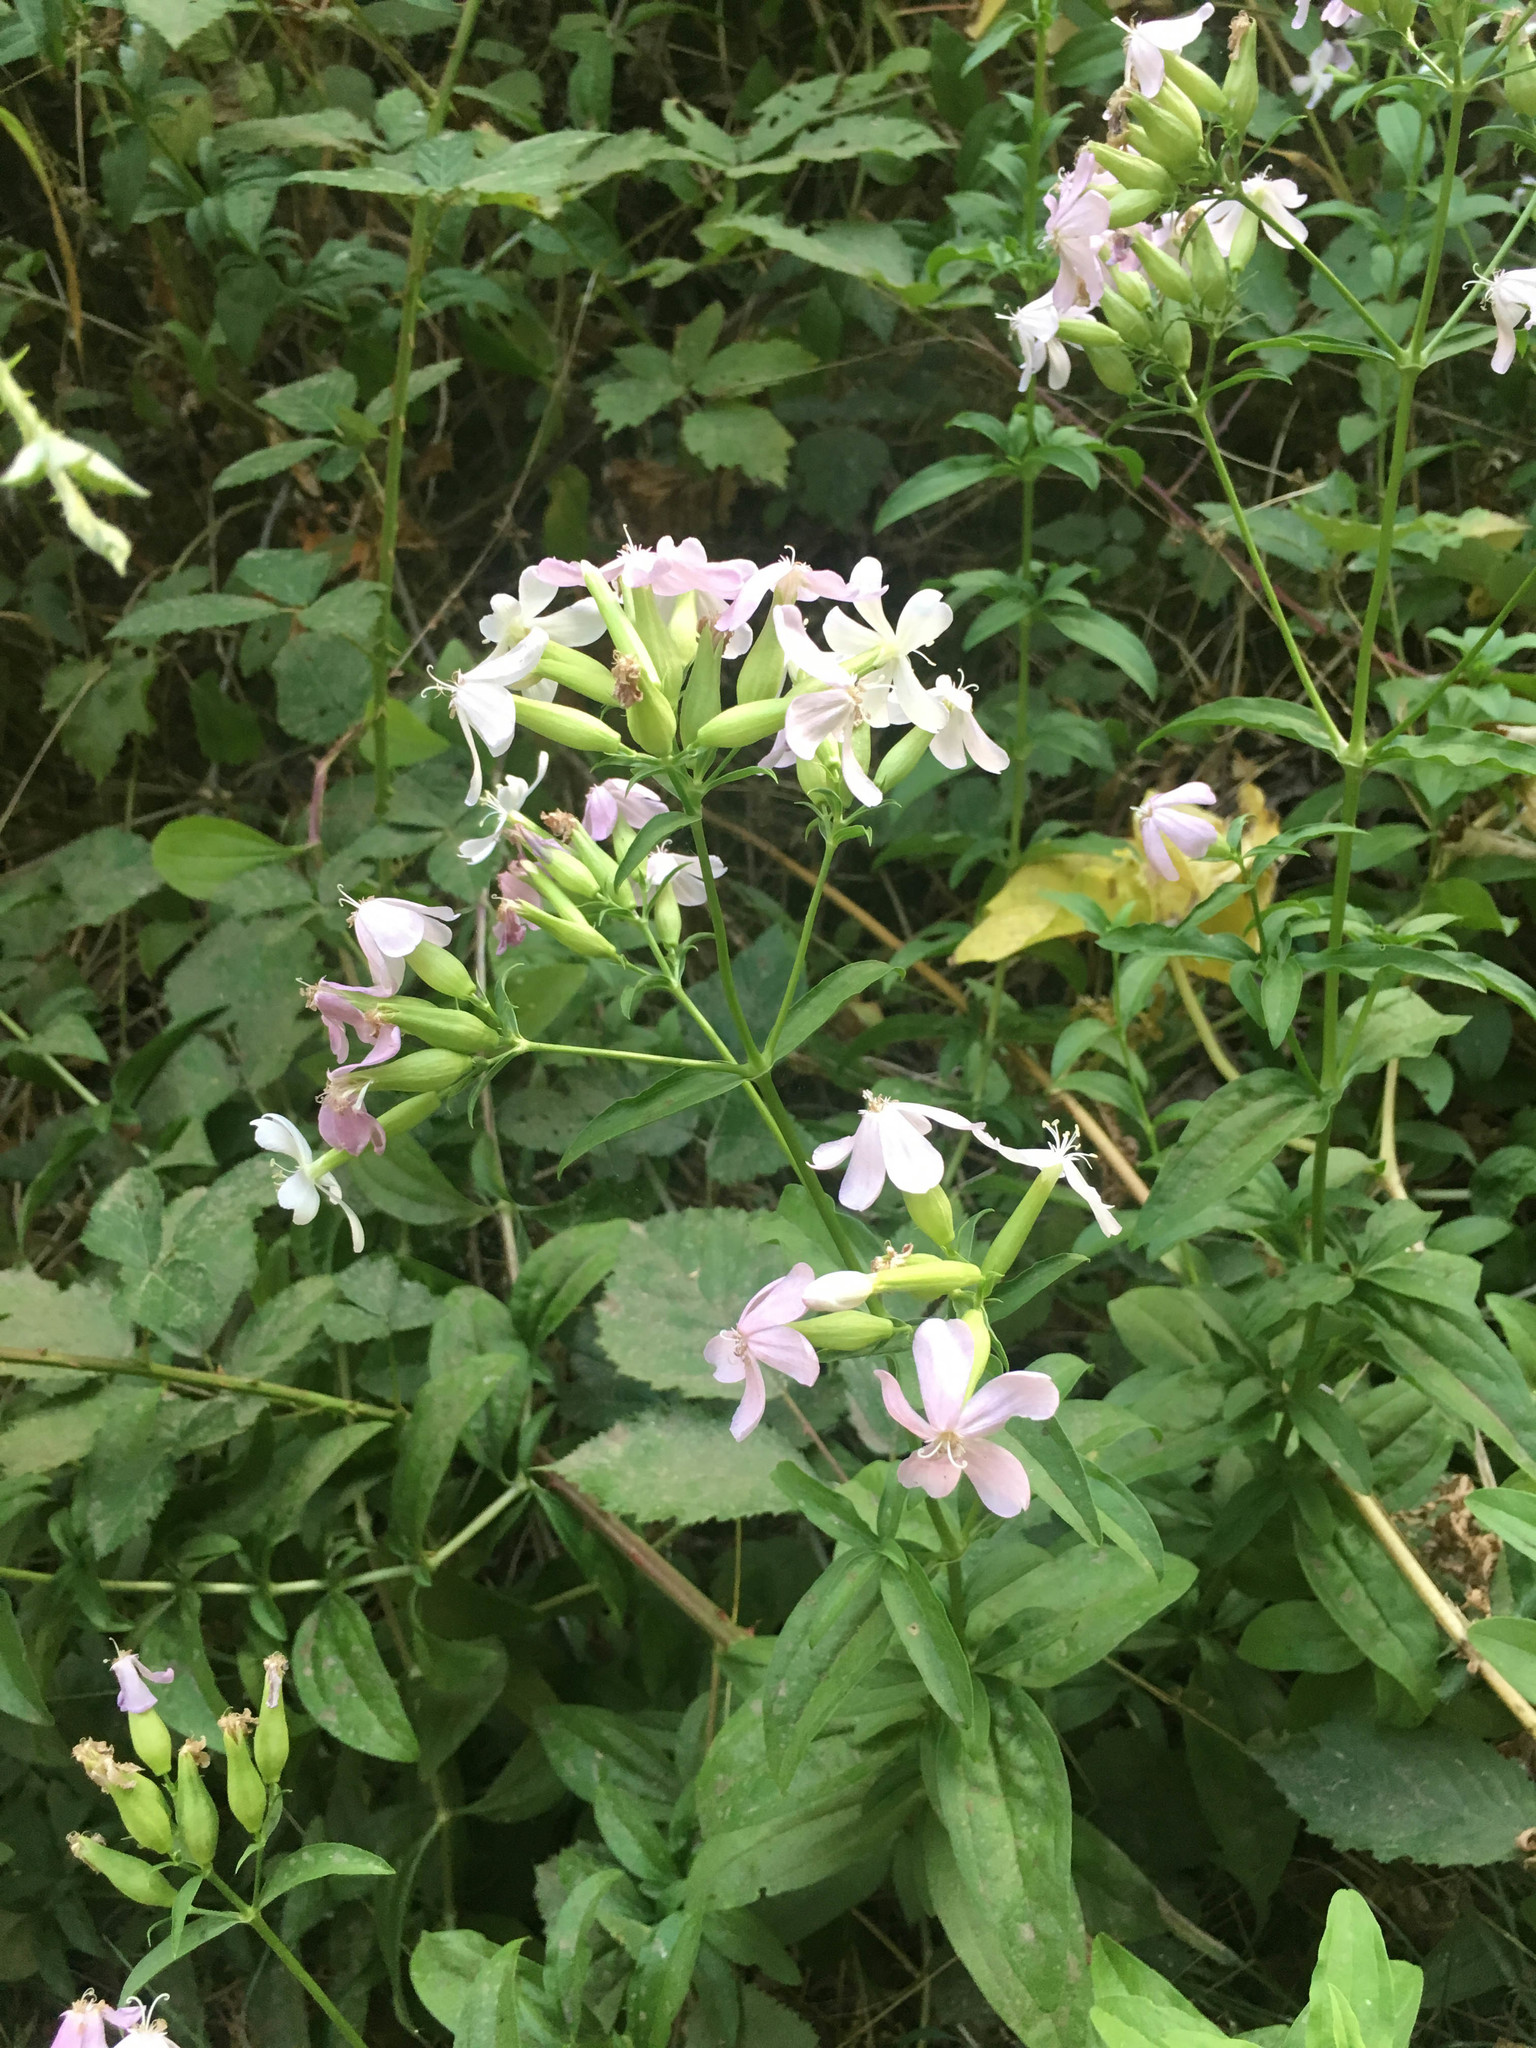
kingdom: Plantae
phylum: Tracheophyta
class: Magnoliopsida
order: Caryophyllales
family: Caryophyllaceae
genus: Saponaria
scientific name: Saponaria officinalis
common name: Soapwort
